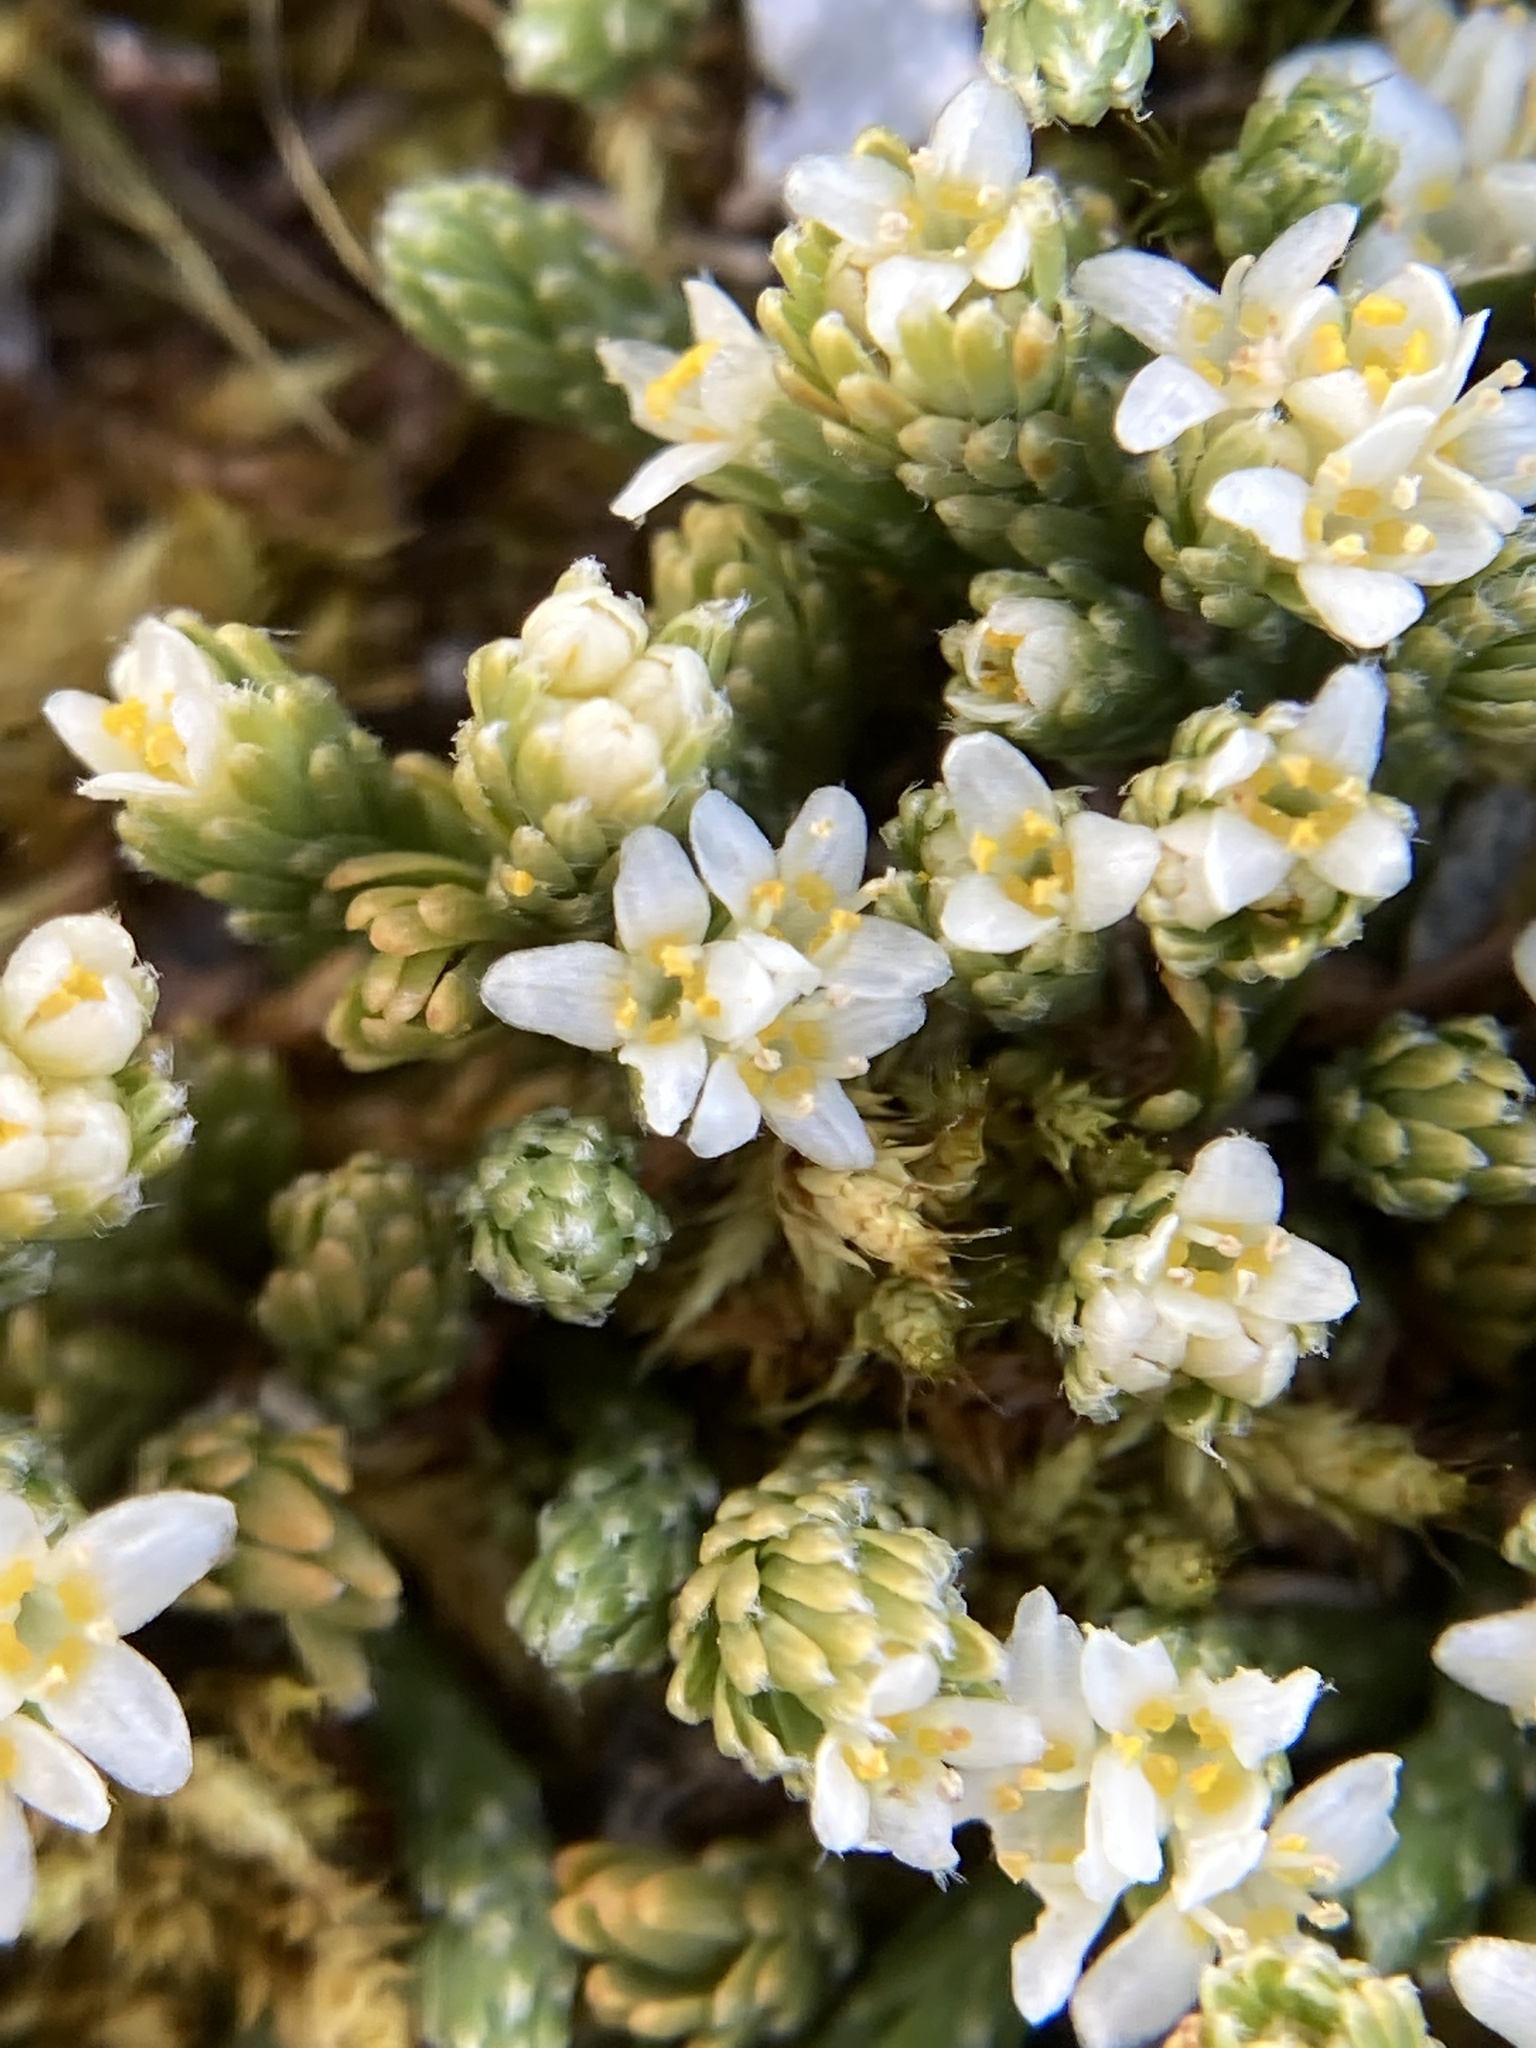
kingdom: Plantae
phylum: Tracheophyta
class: Magnoliopsida
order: Malvales
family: Thymelaeaceae
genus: Kelleria
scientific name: Kelleria dieffenbachii
